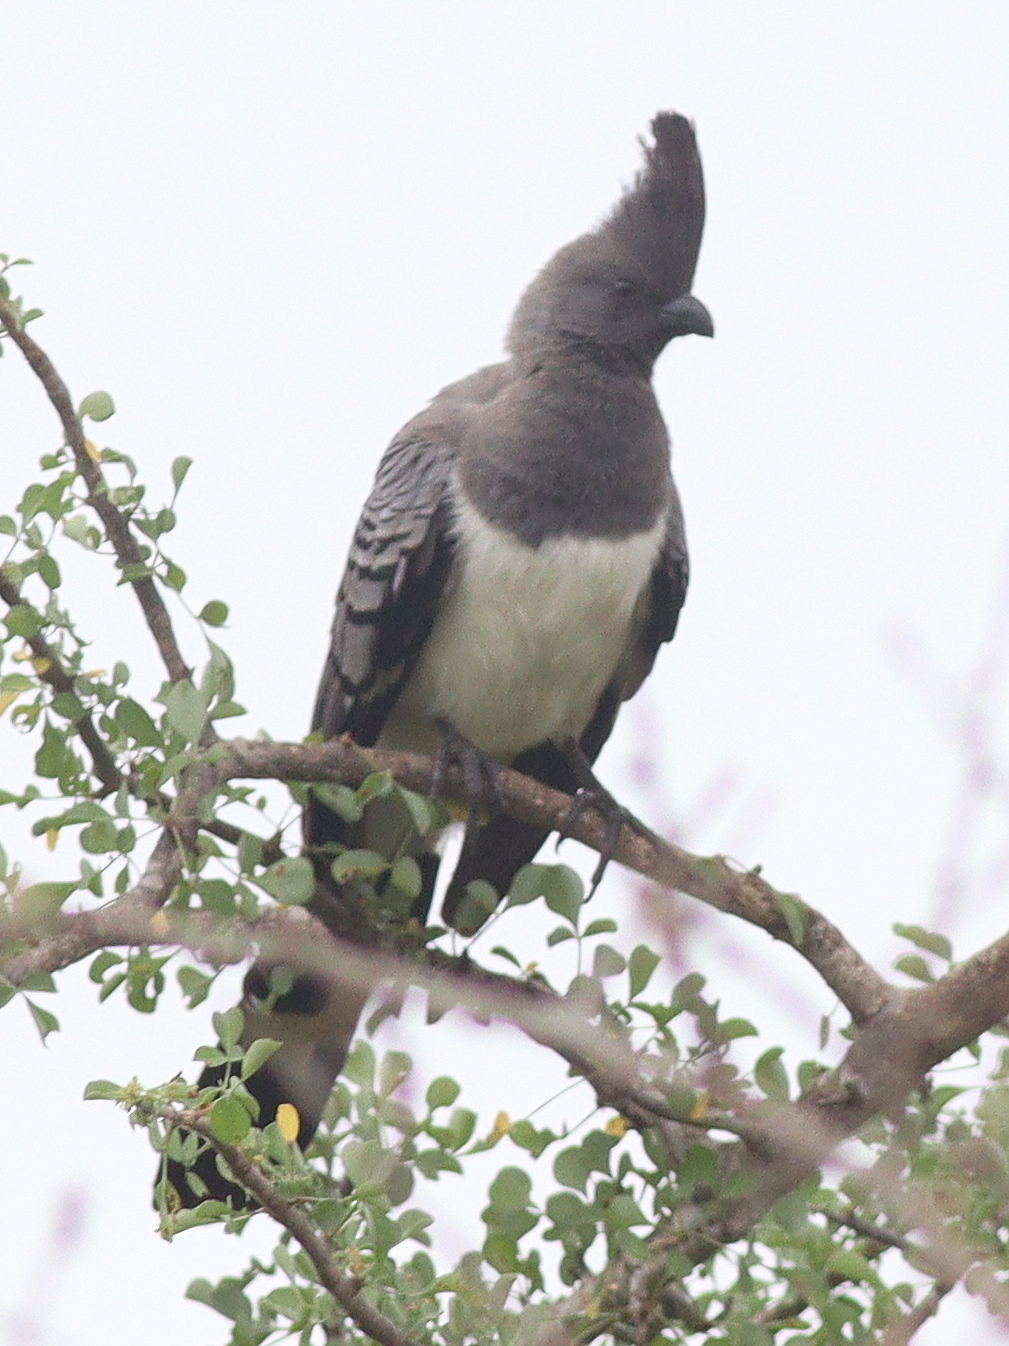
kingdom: Animalia
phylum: Chordata
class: Aves
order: Musophagiformes
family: Musophagidae
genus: Corythaixoides
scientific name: Corythaixoides leucogaster
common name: White-bellied go-away-bird
